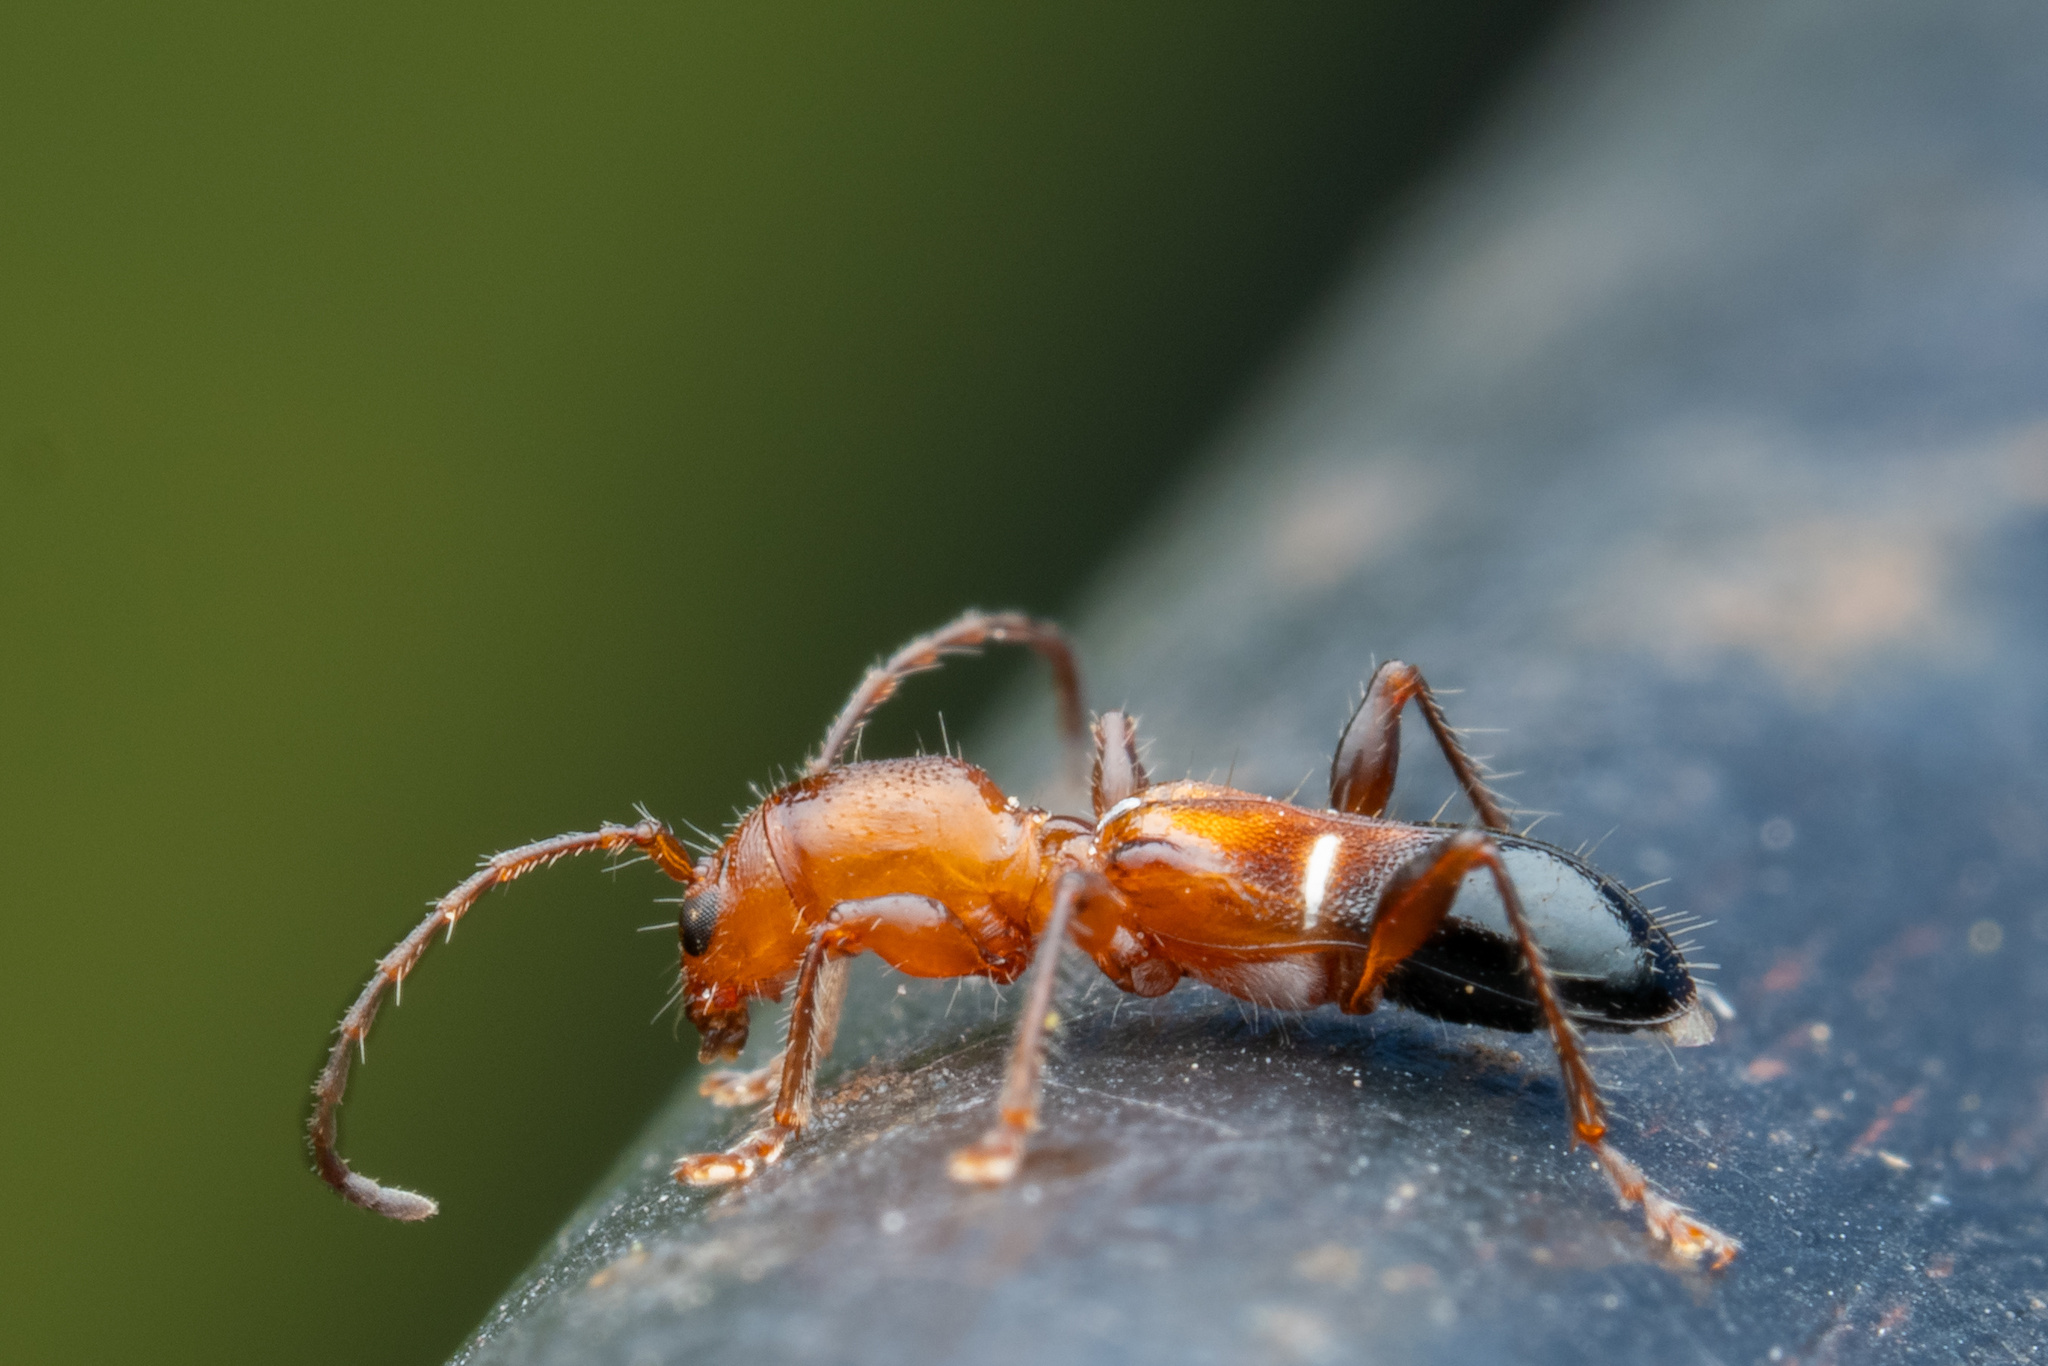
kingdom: Animalia
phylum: Arthropoda
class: Insecta
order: Coleoptera
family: Cerambycidae
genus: Euderces
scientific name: Euderces reichei
